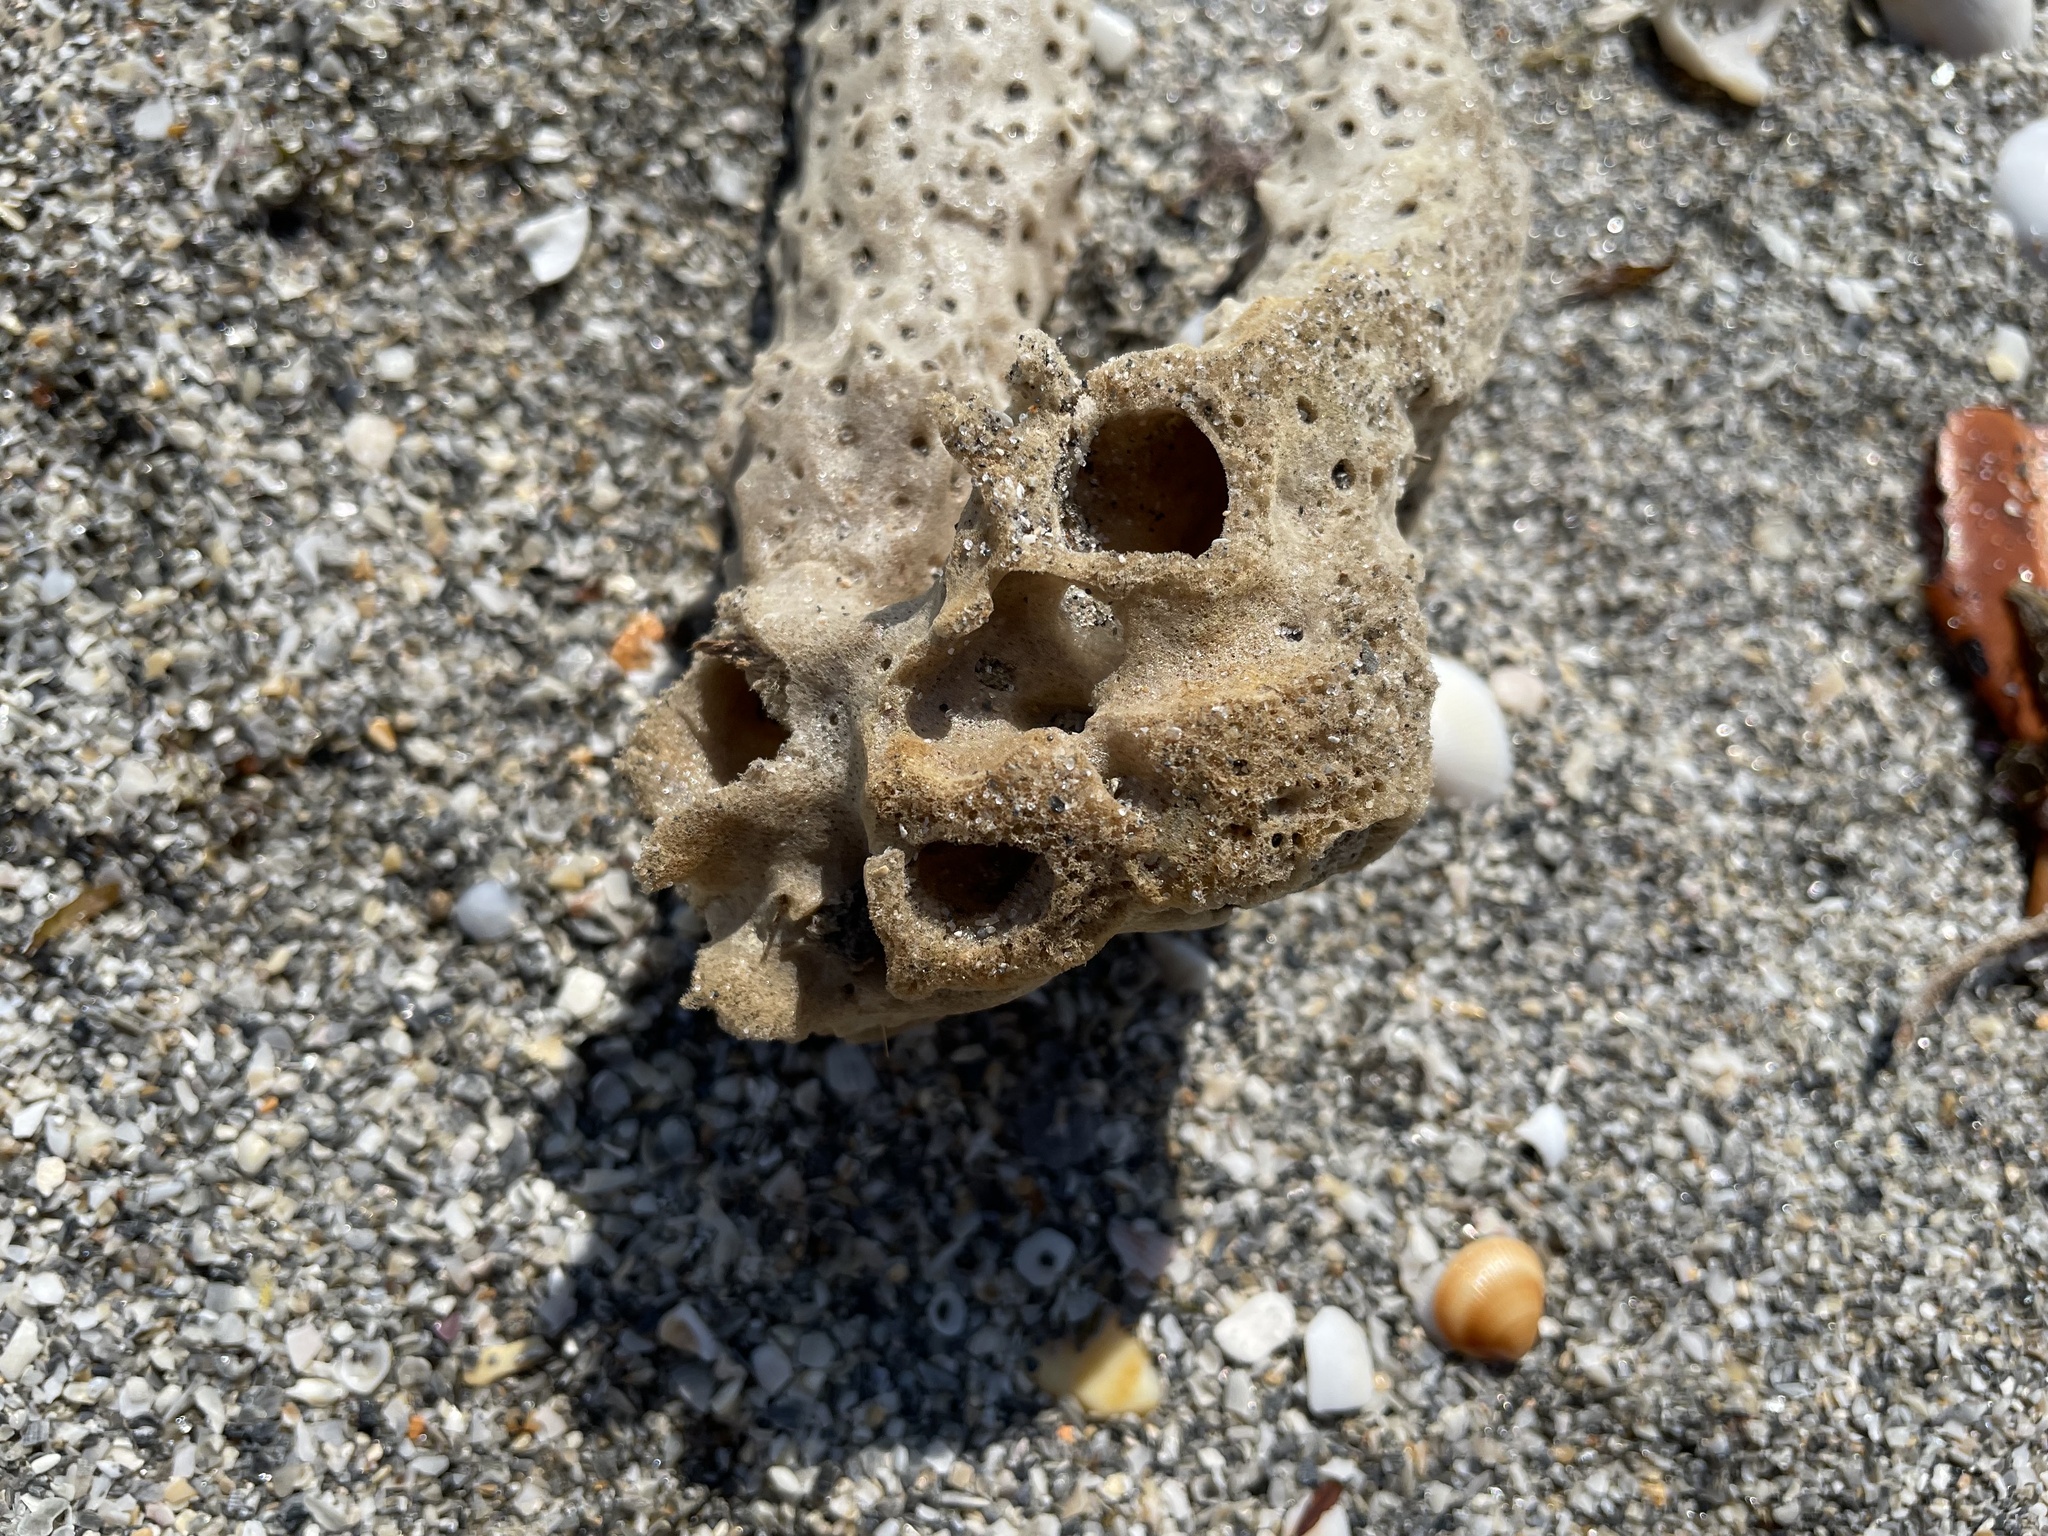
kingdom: Animalia
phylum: Porifera
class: Demospongiae
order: Haplosclerida
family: Callyspongiidae
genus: Callyspongia
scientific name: Callyspongia aculeata
